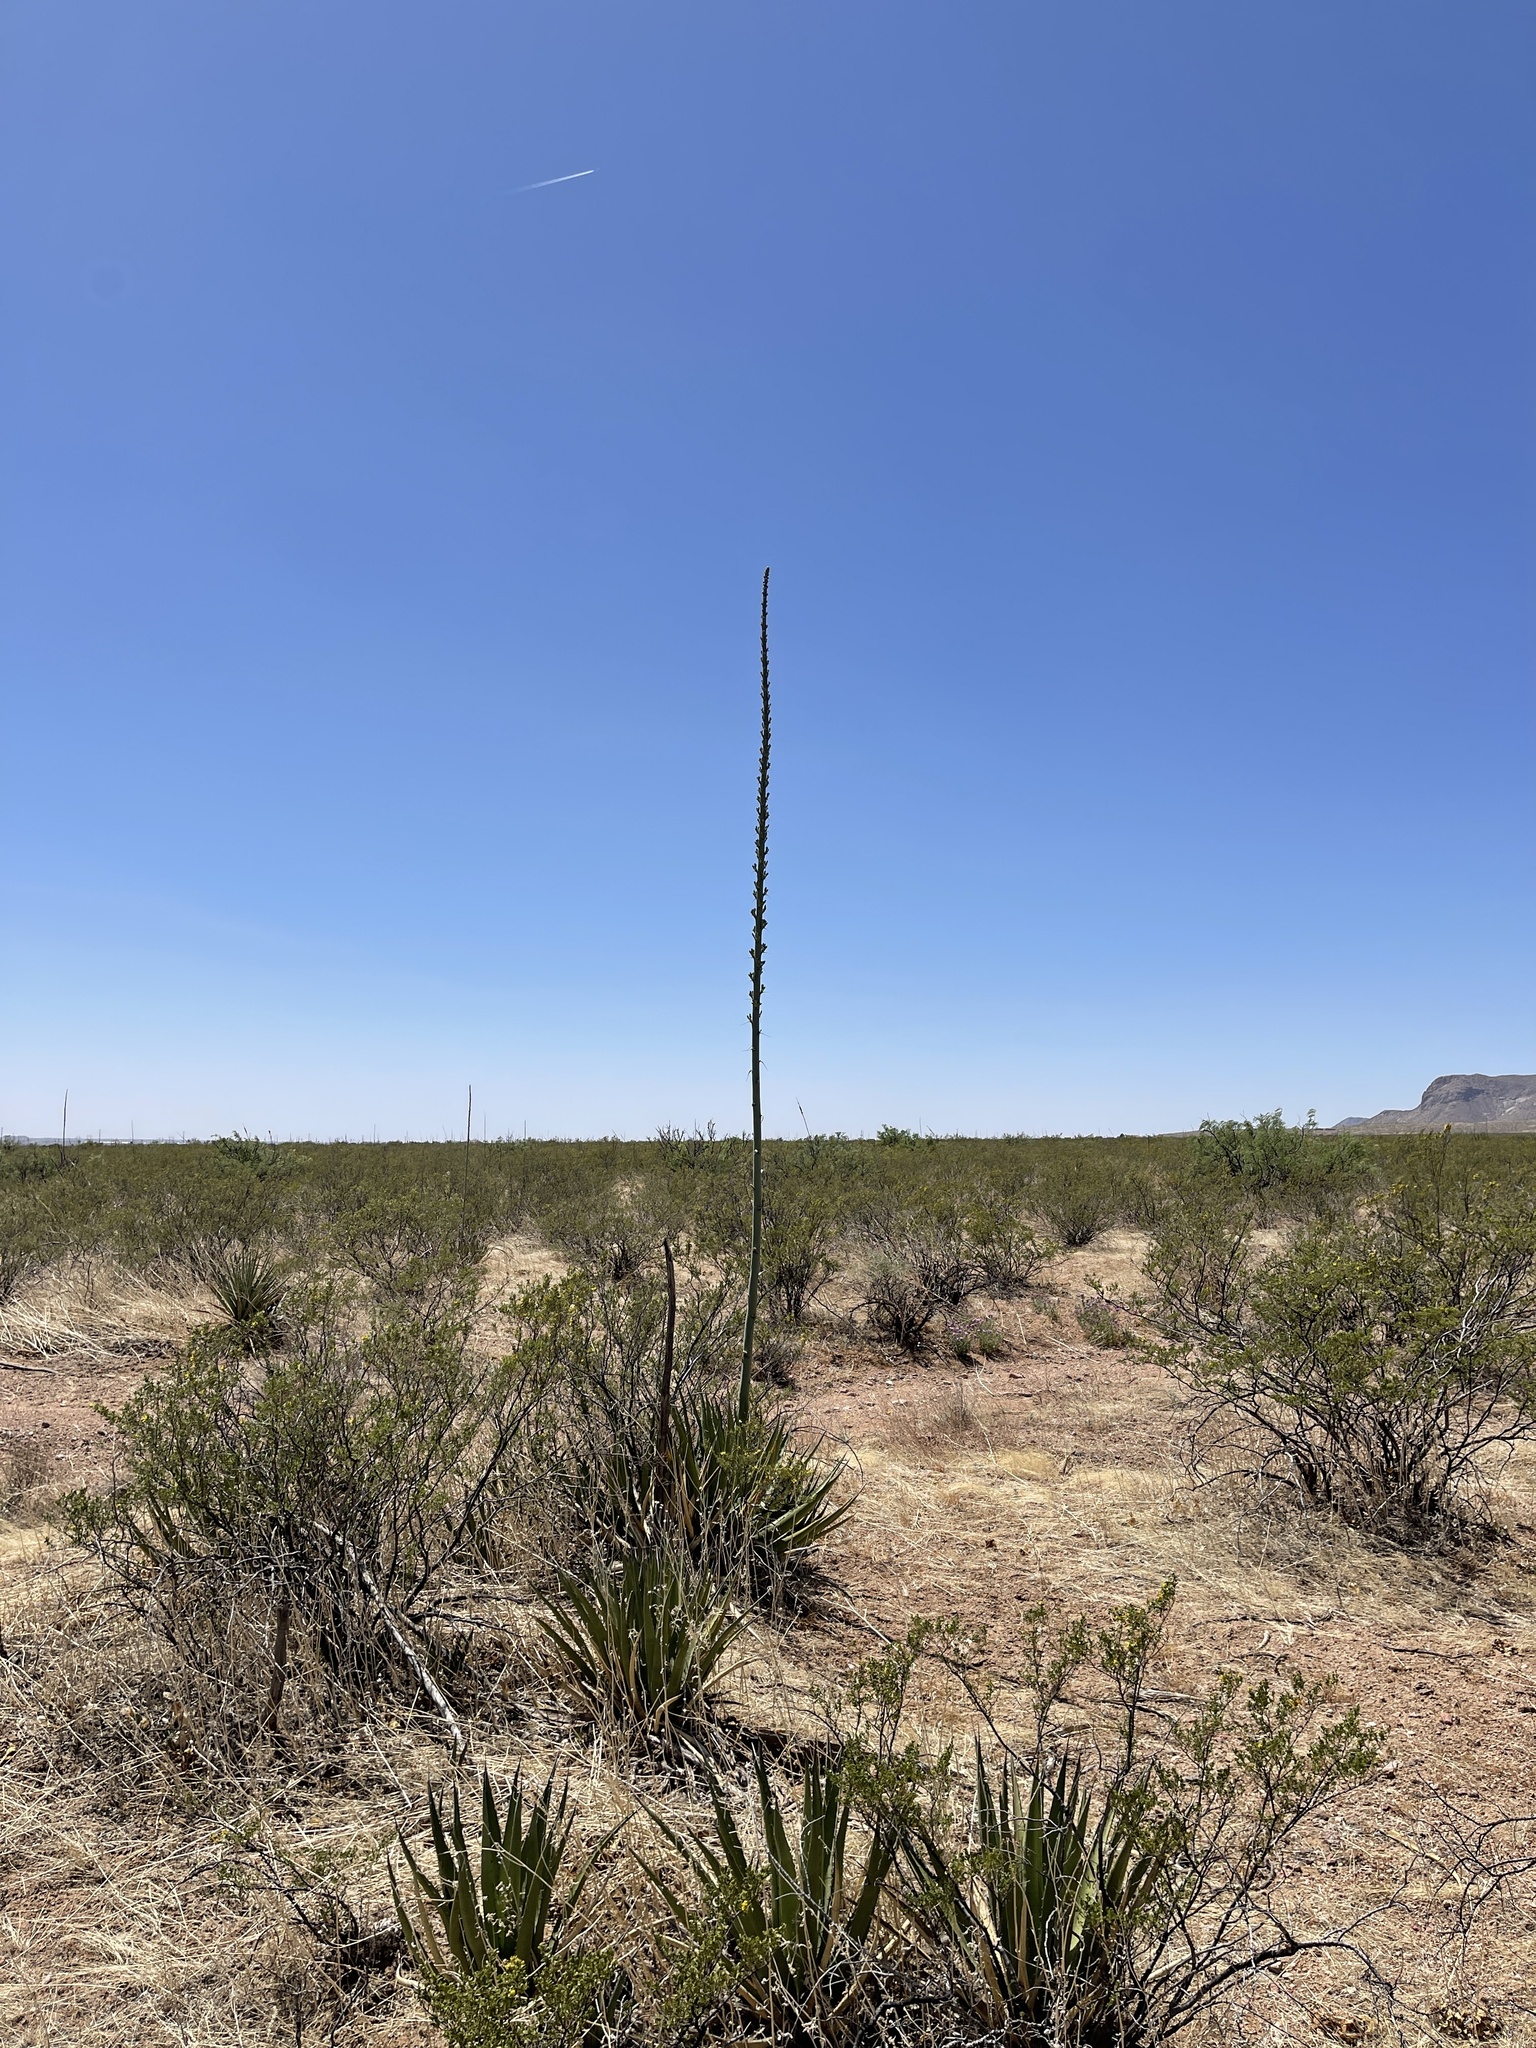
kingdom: Plantae
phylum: Tracheophyta
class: Liliopsida
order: Asparagales
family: Asparagaceae
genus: Agave
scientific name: Agave lechuguilla
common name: Lecheguilla agave
